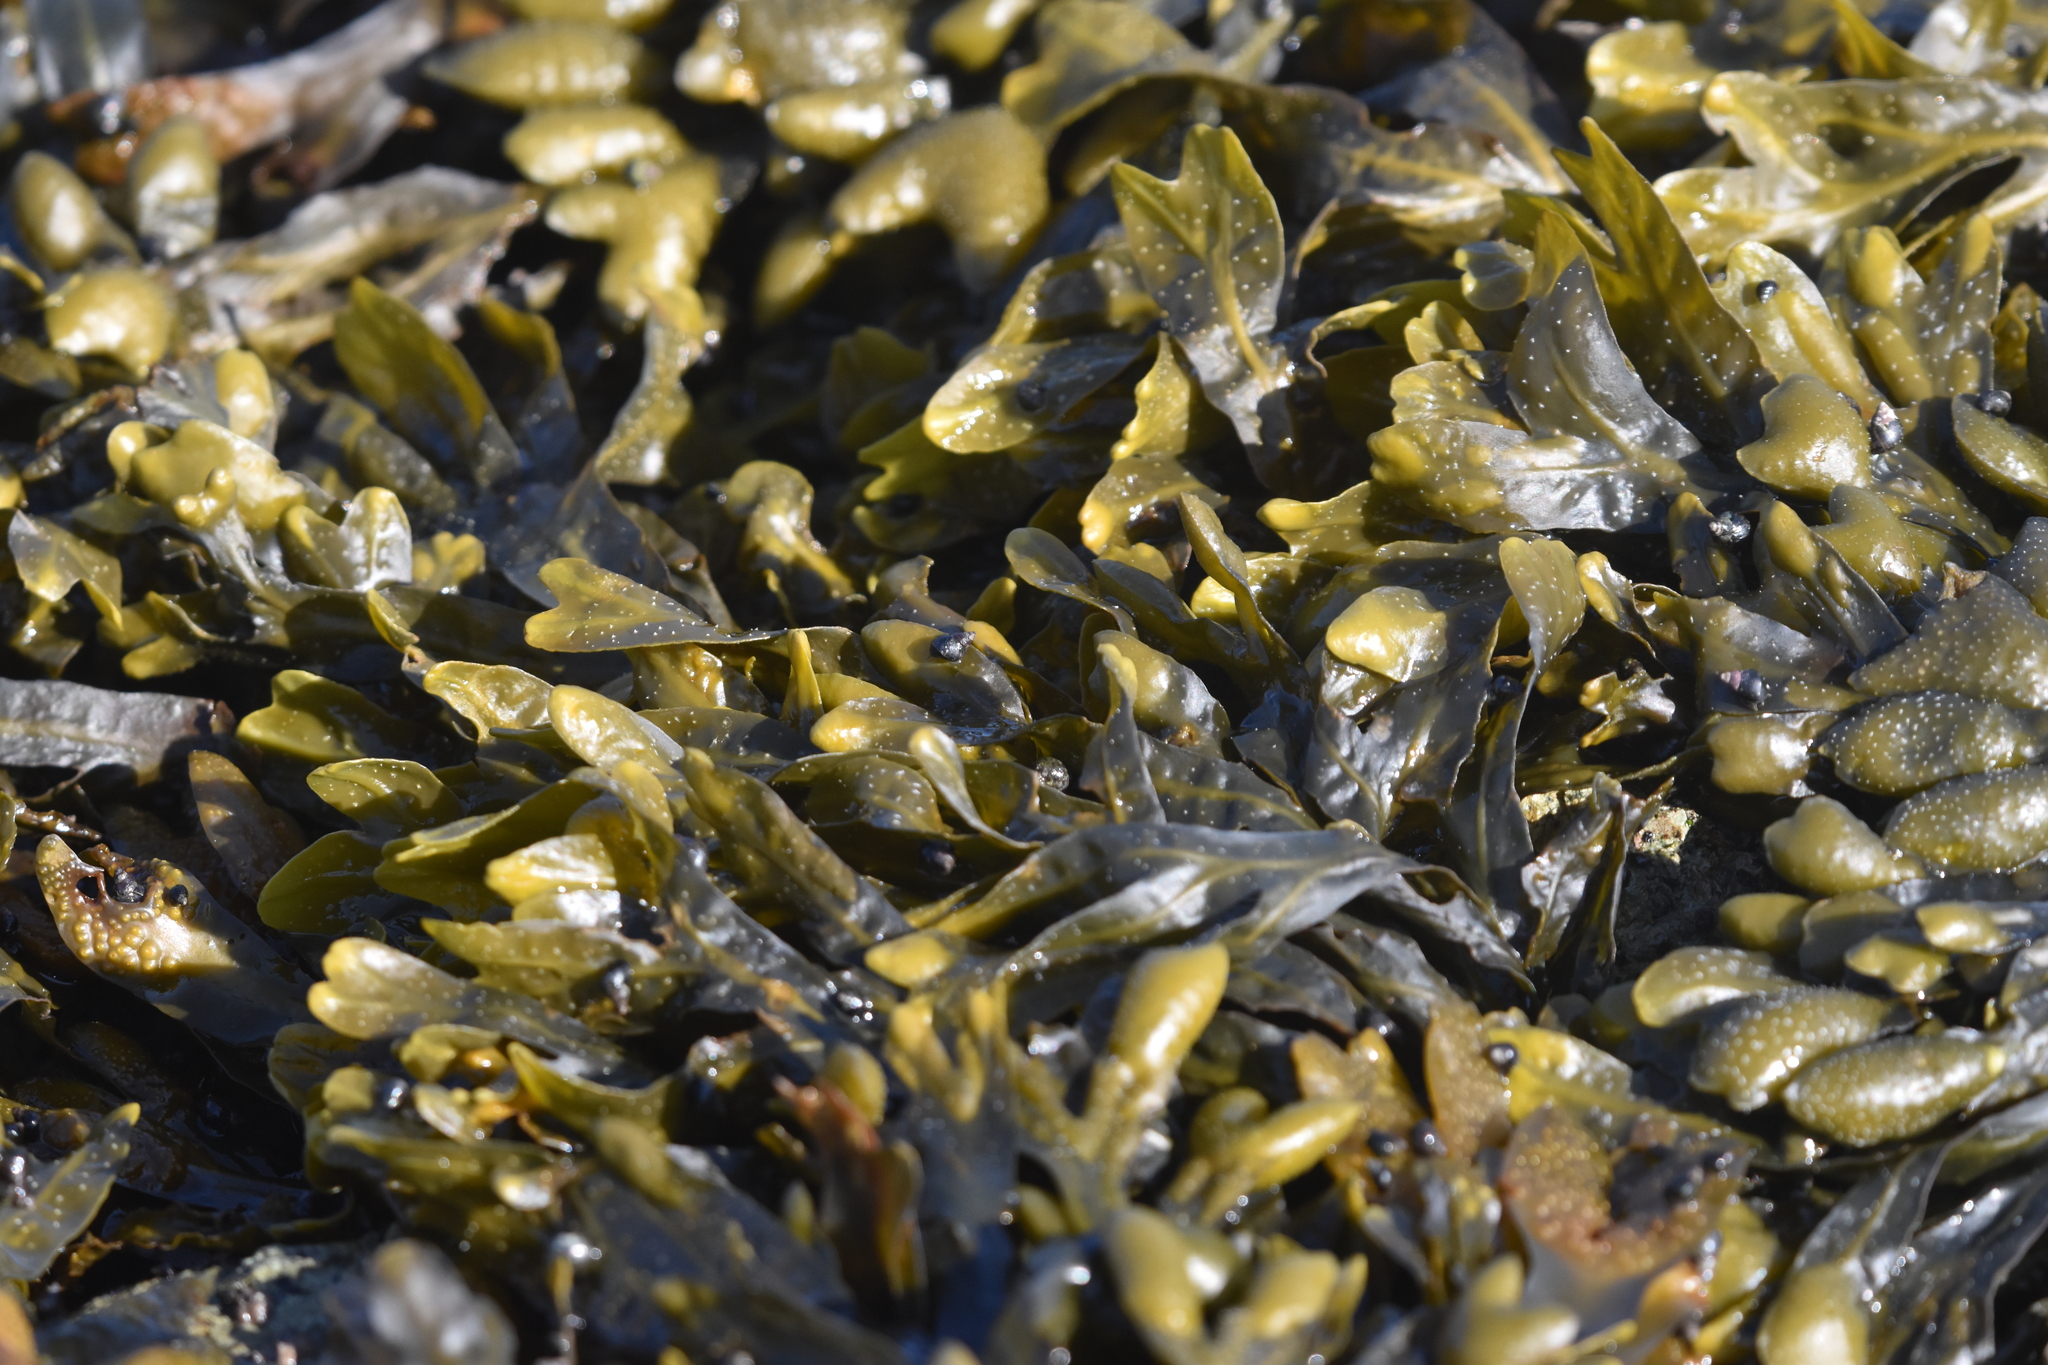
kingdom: Chromista
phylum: Ochrophyta
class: Phaeophyceae
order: Fucales
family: Fucaceae
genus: Fucus
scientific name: Fucus distichus
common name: Rockweed
